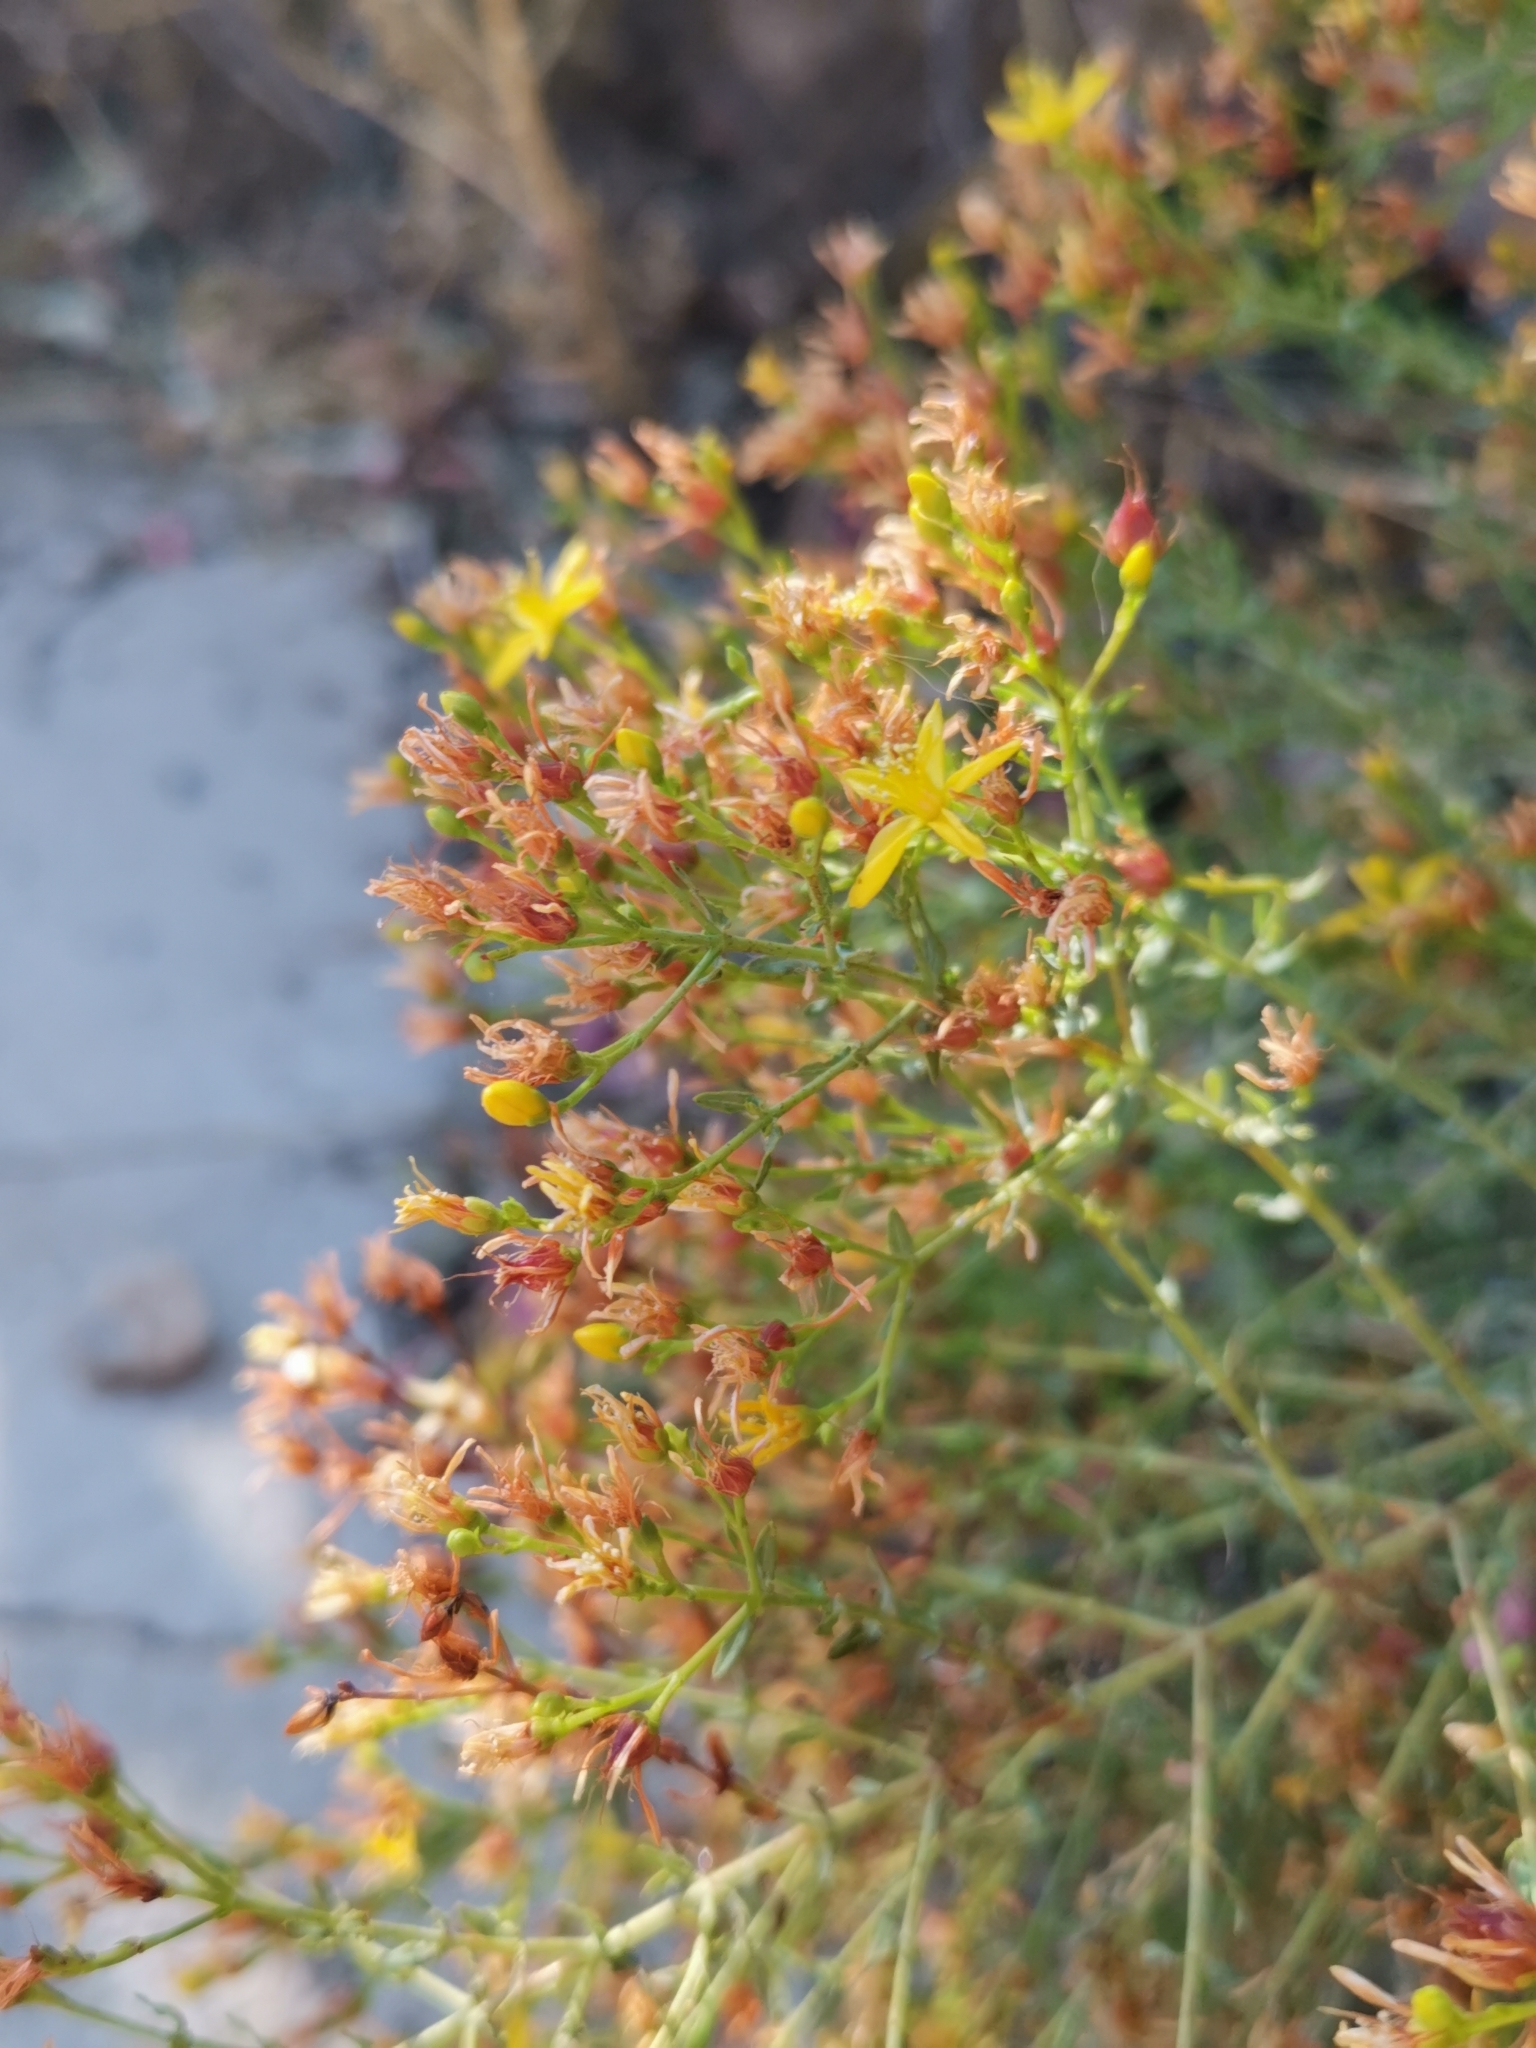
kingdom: Plantae
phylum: Tracheophyta
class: Magnoliopsida
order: Malpighiales
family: Hypericaceae
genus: Hypericum
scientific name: Hypericum triquetrifolium
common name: Tangled hypericum
